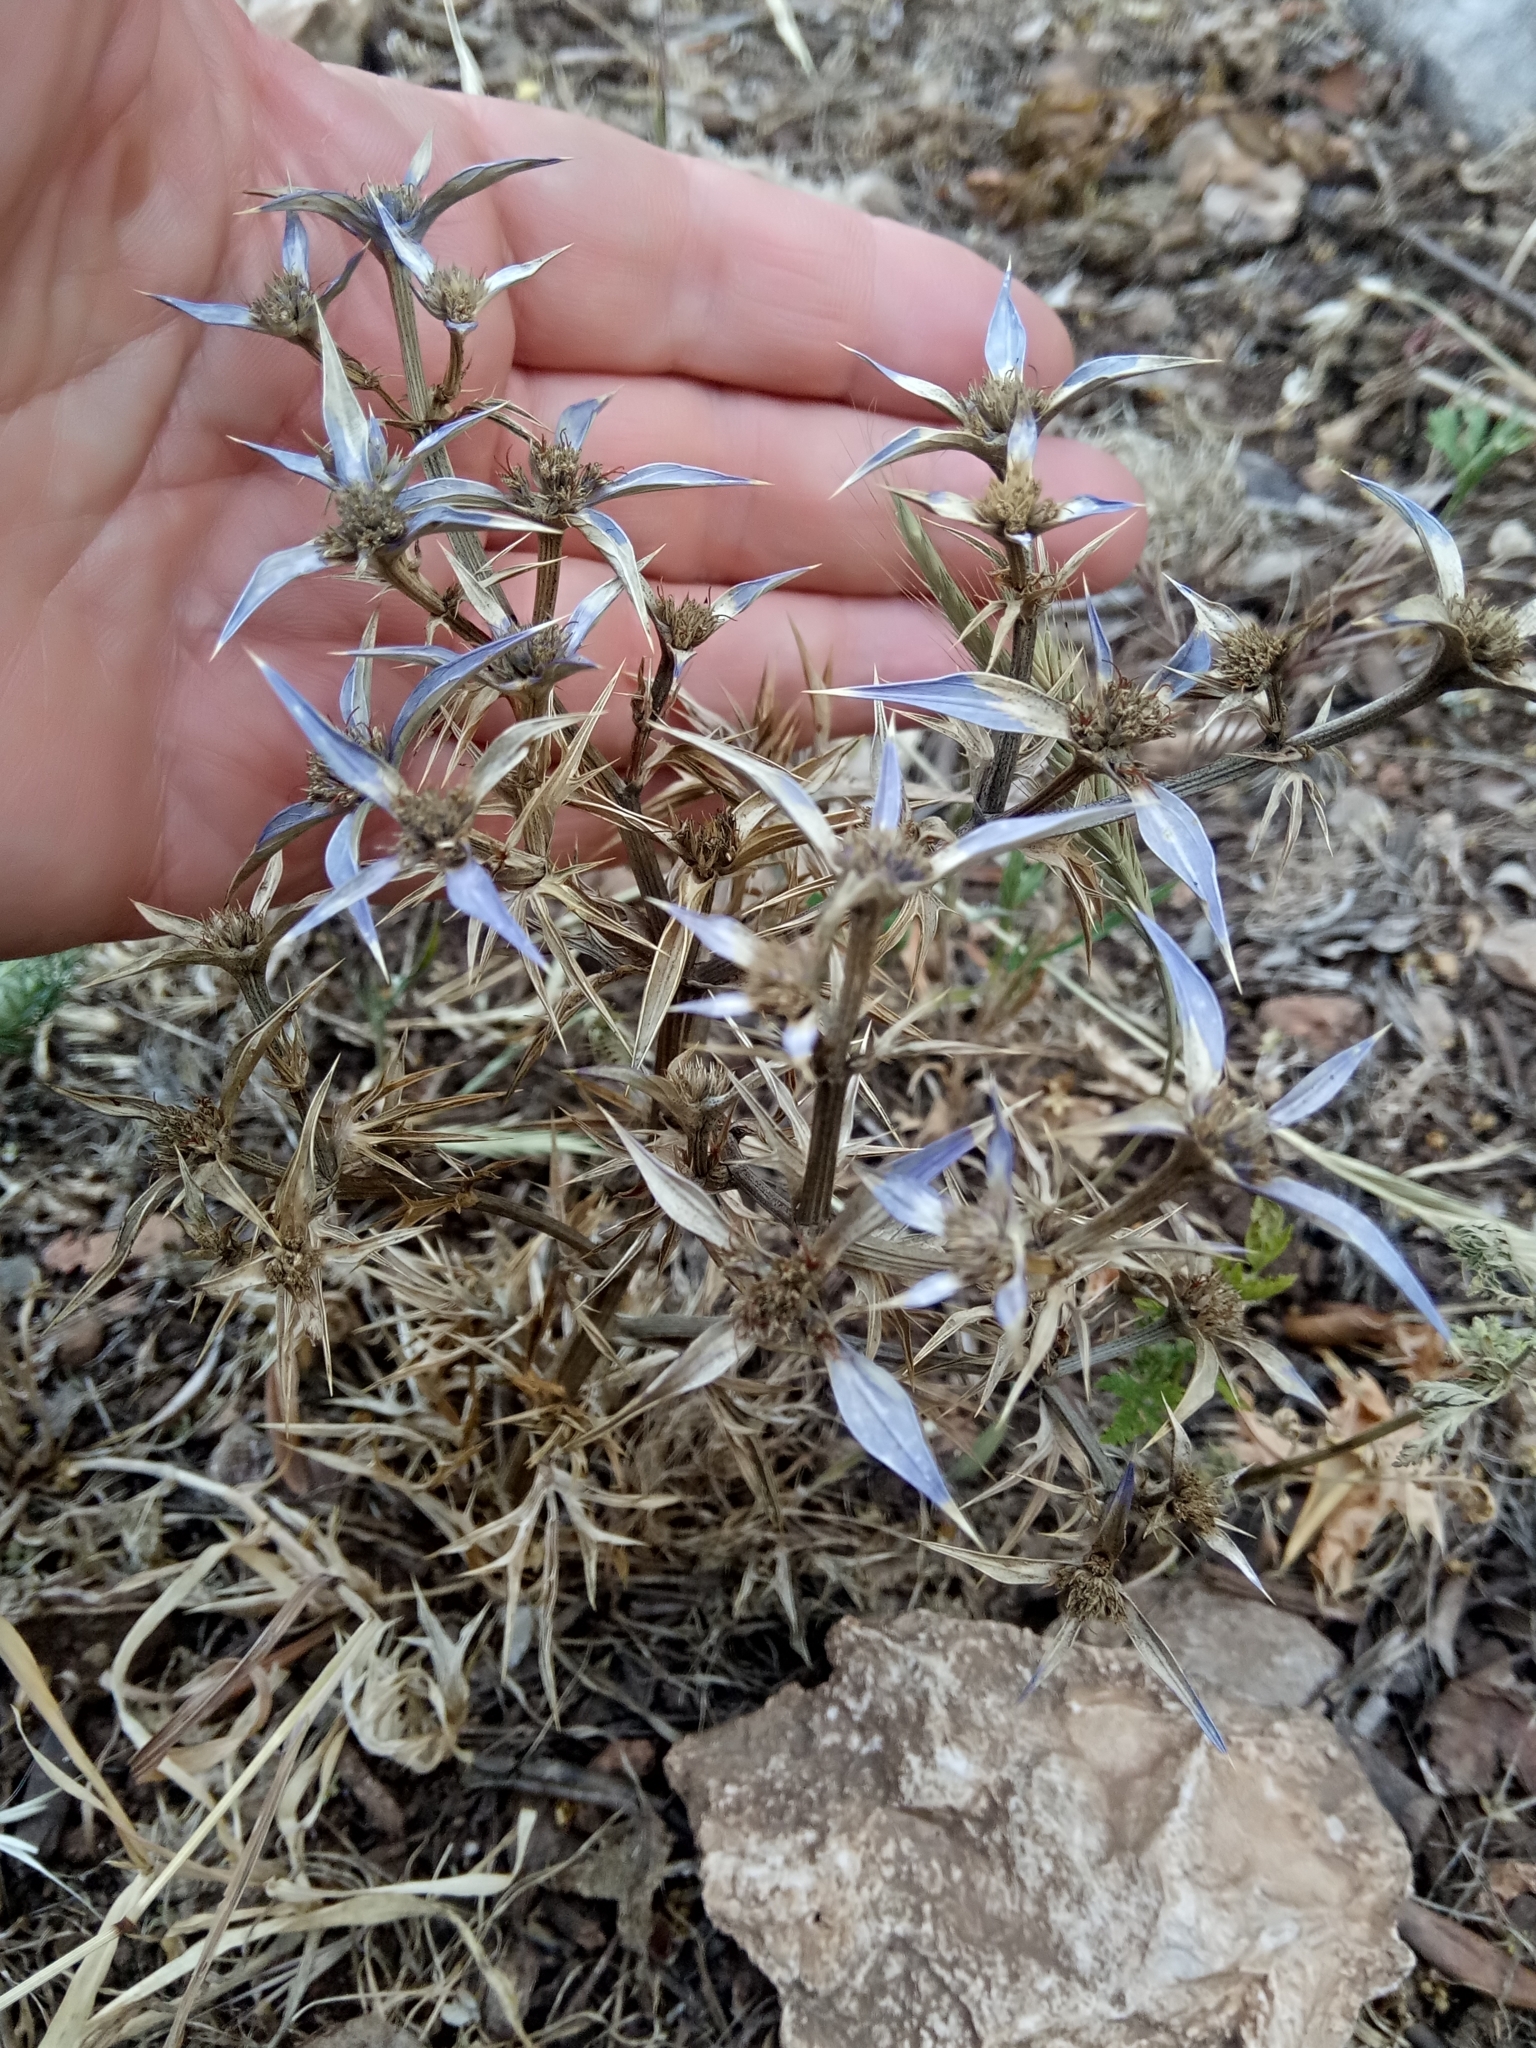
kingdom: Plantae
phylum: Tracheophyta
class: Magnoliopsida
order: Apiales
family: Apiaceae
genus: Eryngium
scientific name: Eryngium triquetrum
